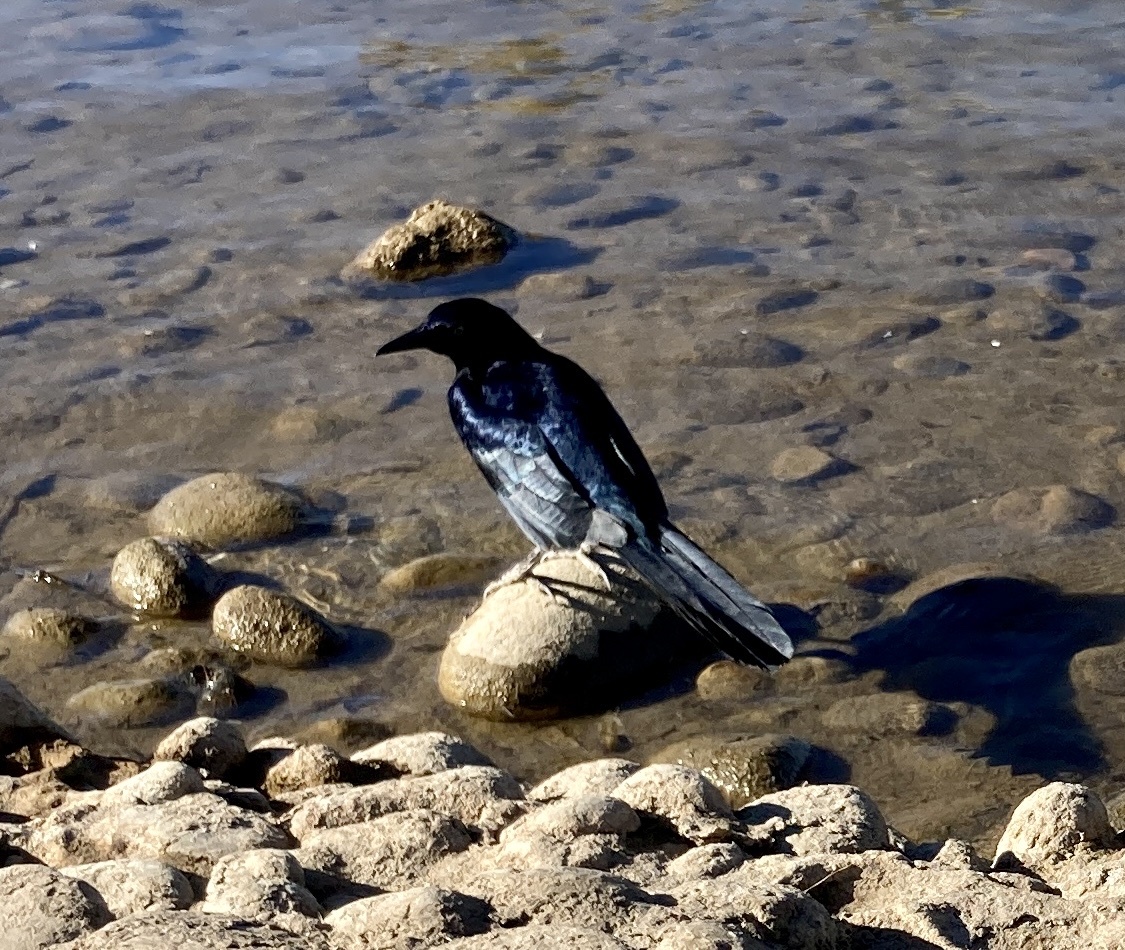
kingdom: Animalia
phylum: Chordata
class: Aves
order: Passeriformes
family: Icteridae
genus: Quiscalus
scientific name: Quiscalus mexicanus
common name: Great-tailed grackle
